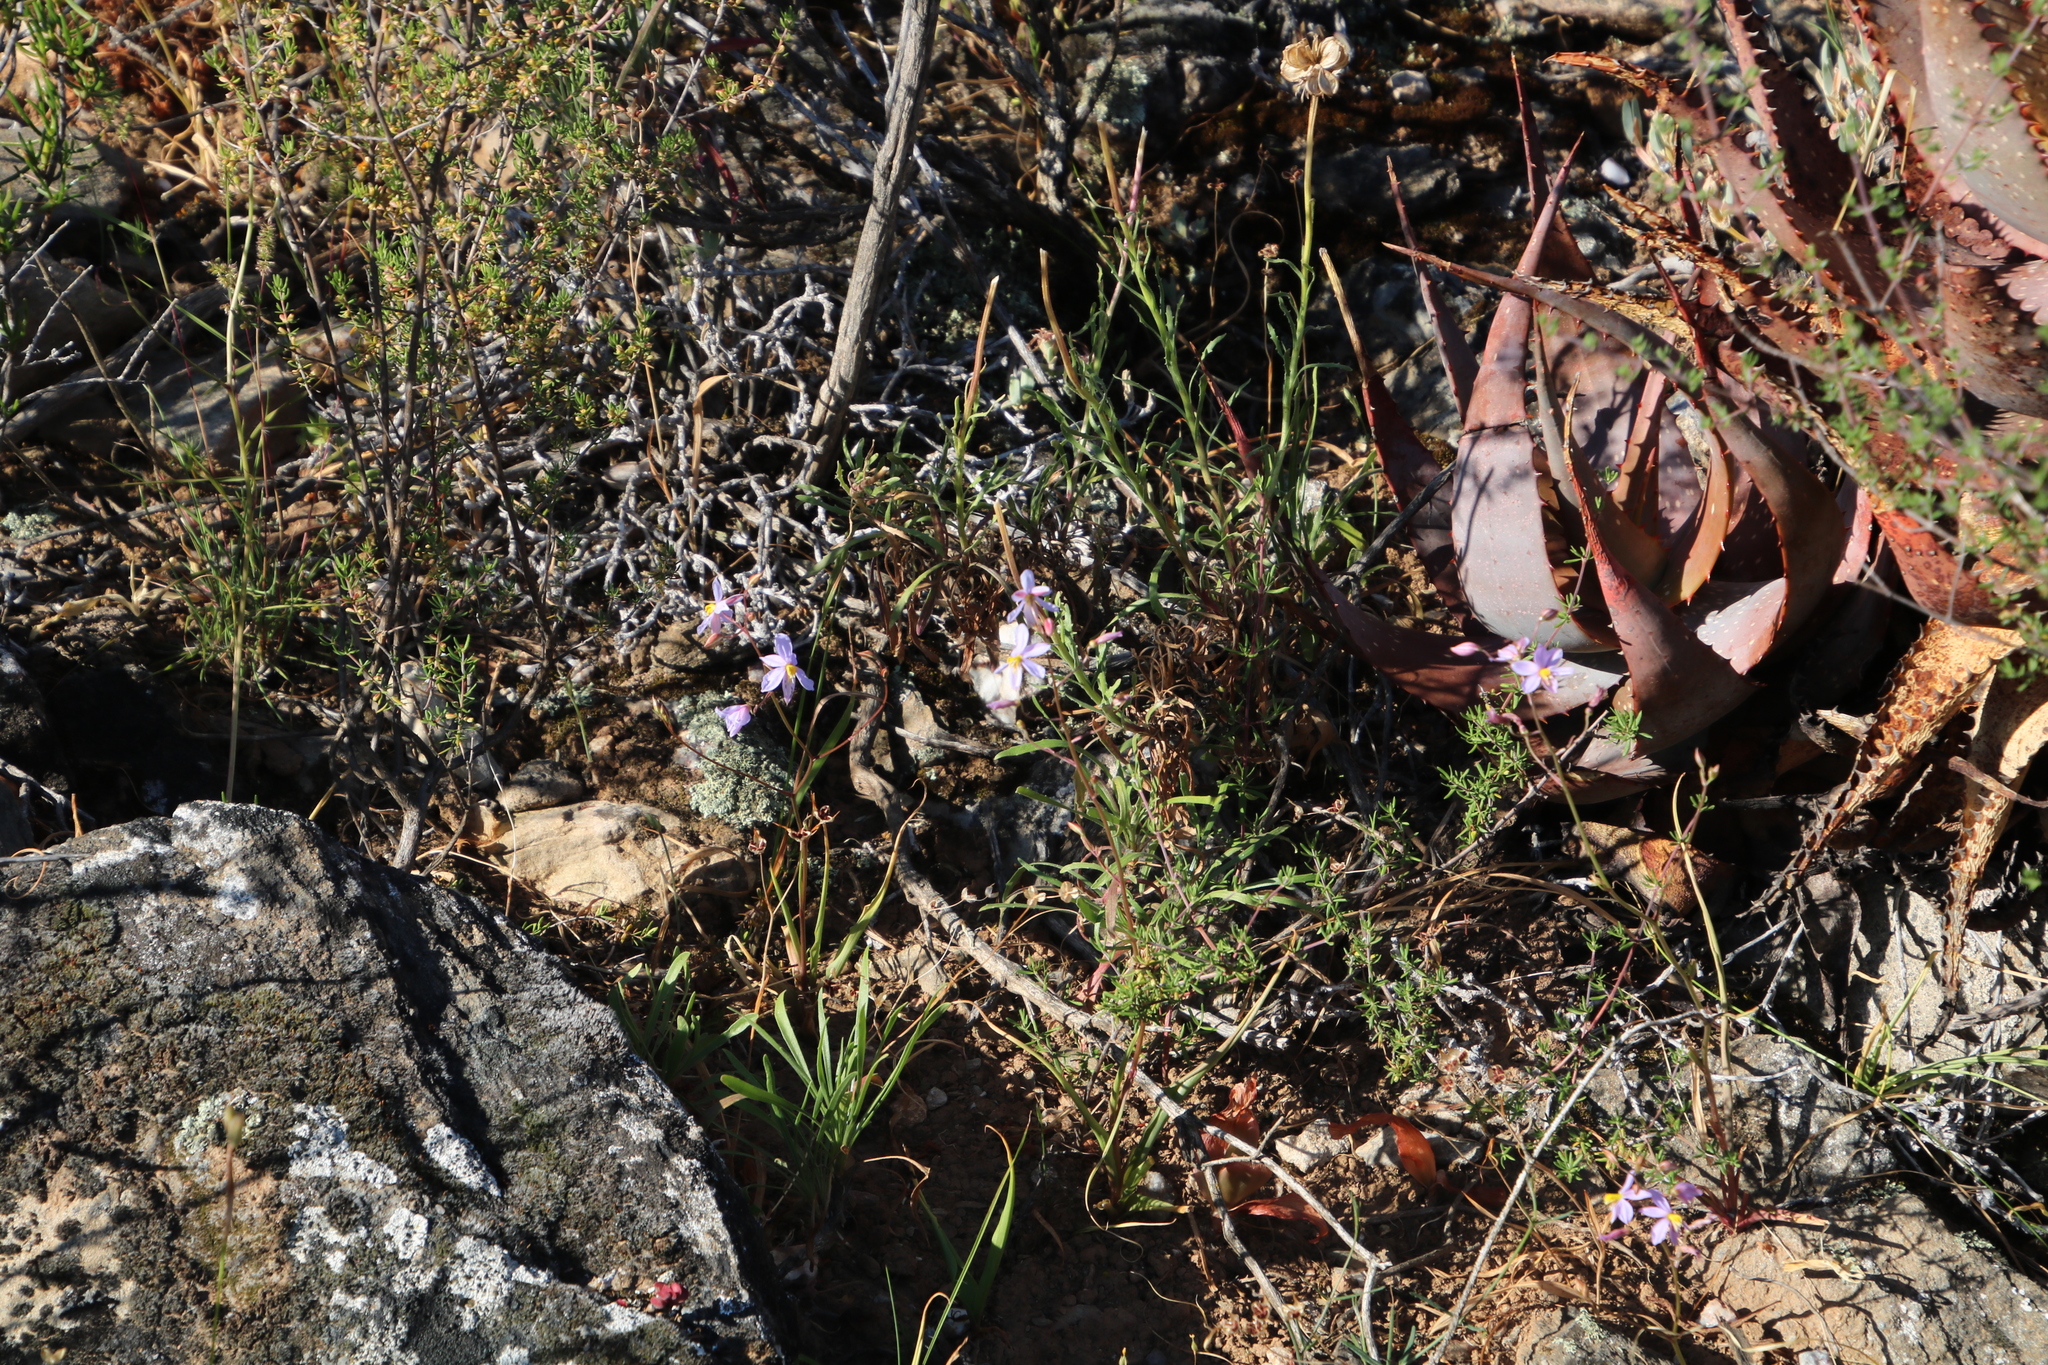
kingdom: Plantae
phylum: Tracheophyta
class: Liliopsida
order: Asparagales
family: Tecophilaeaceae
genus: Cyanella
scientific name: Cyanella hyacinthoides
